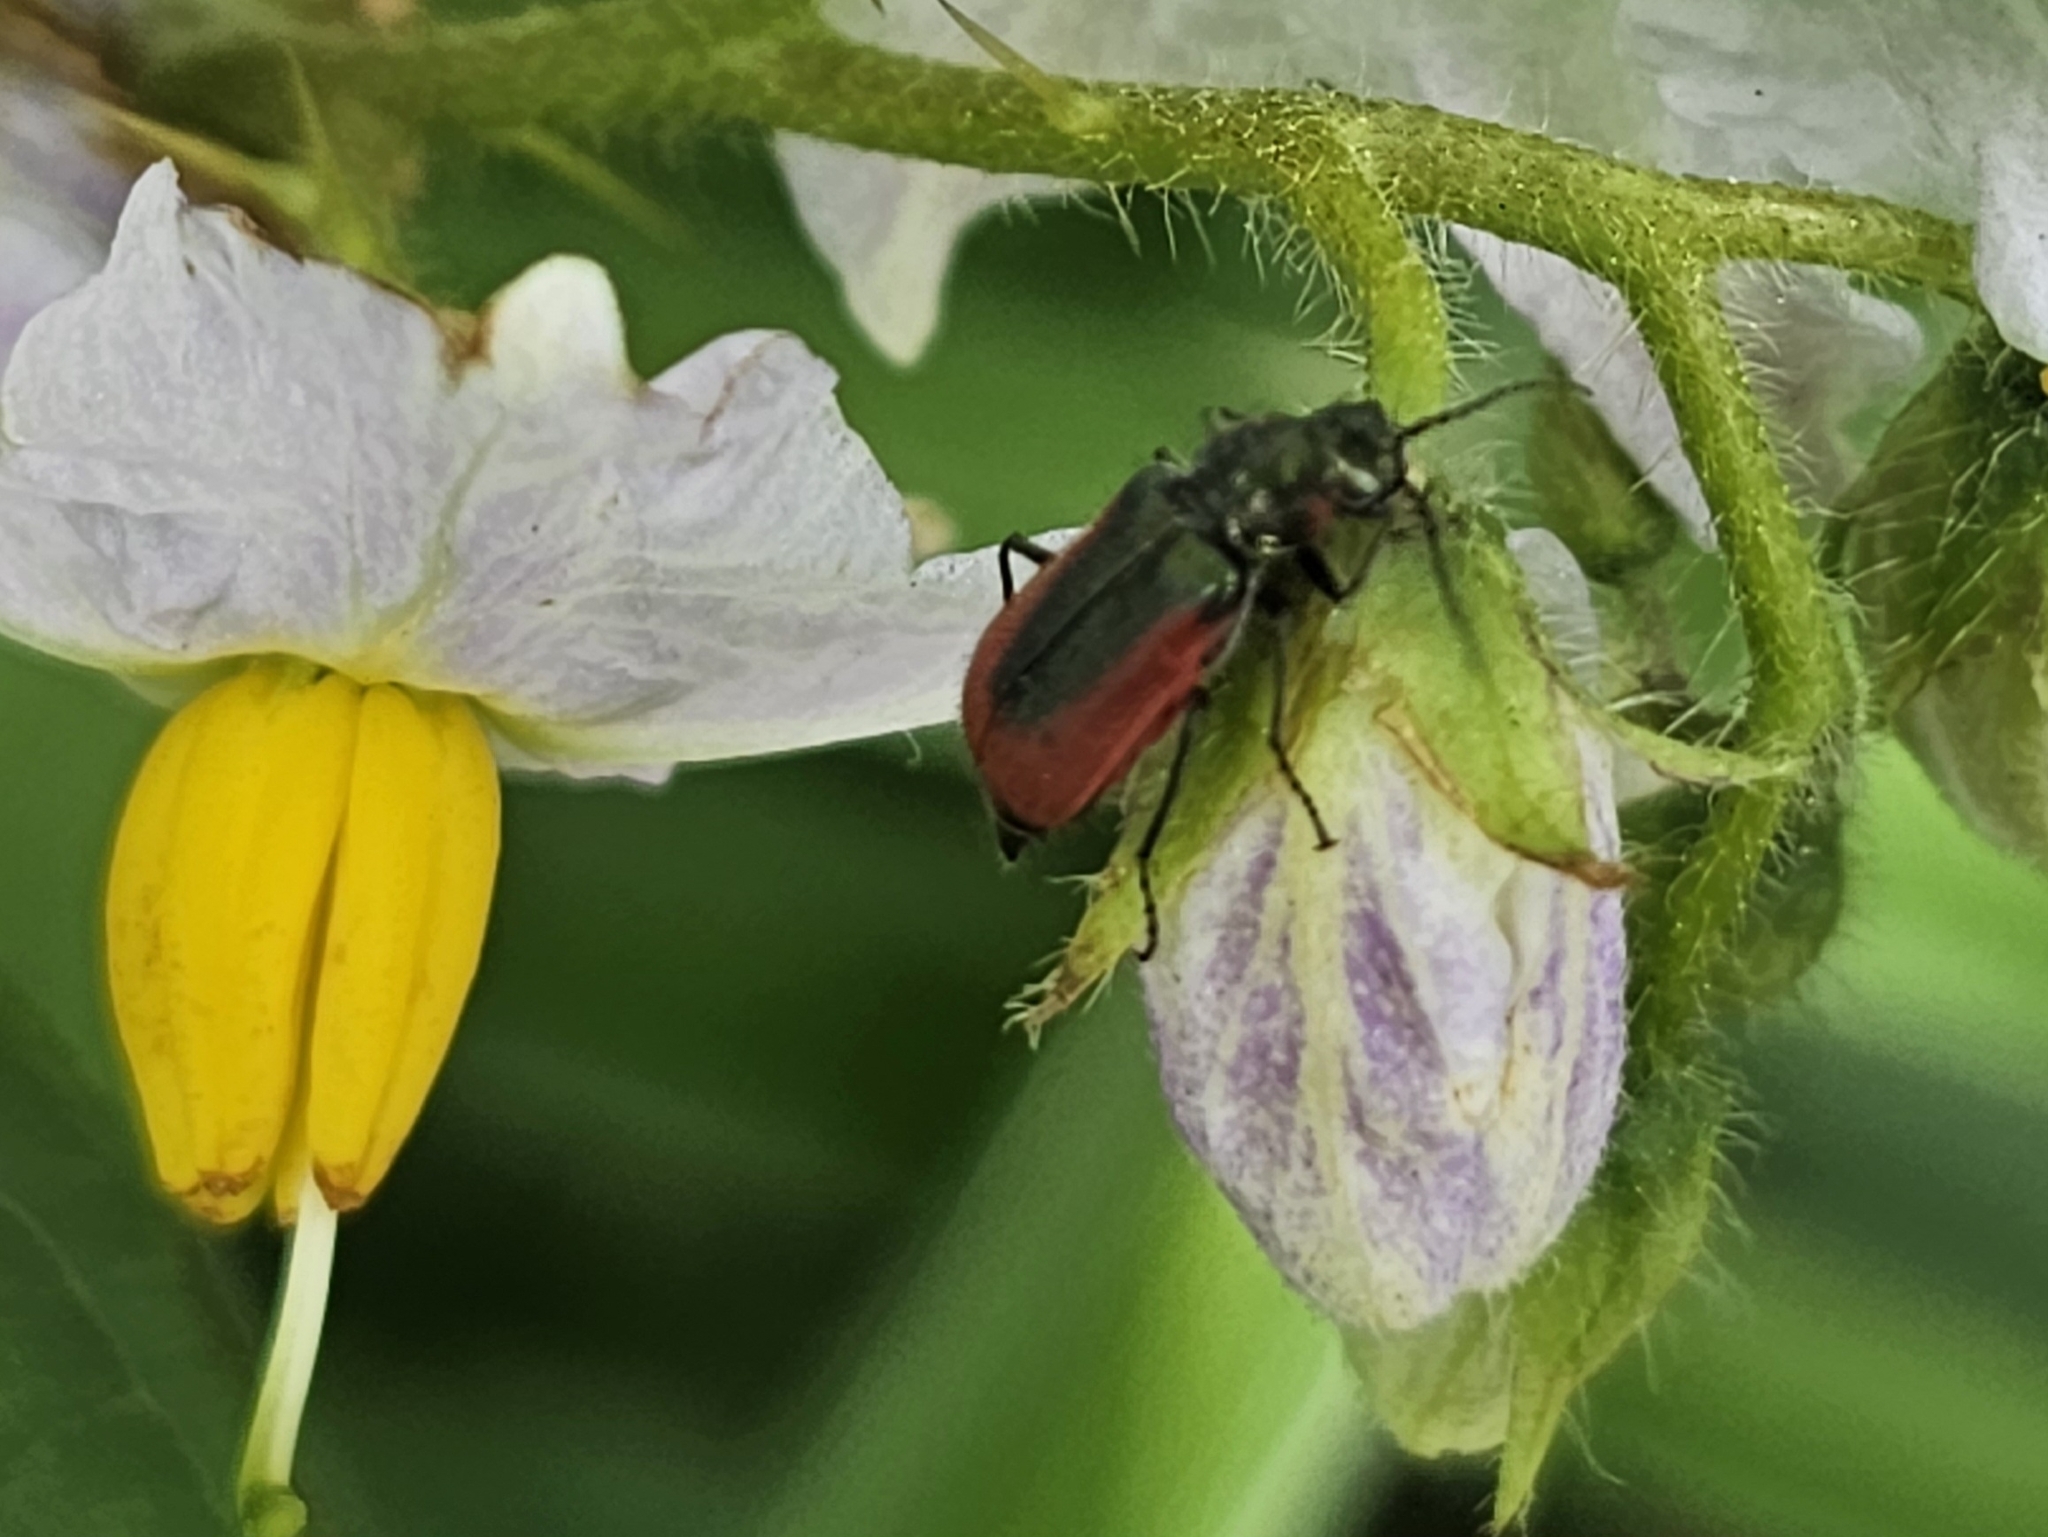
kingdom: Animalia
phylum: Arthropoda
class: Insecta
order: Coleoptera
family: Melyridae
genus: Malachius
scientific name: Malachius aeneus
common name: Scarlet malachite beetle
